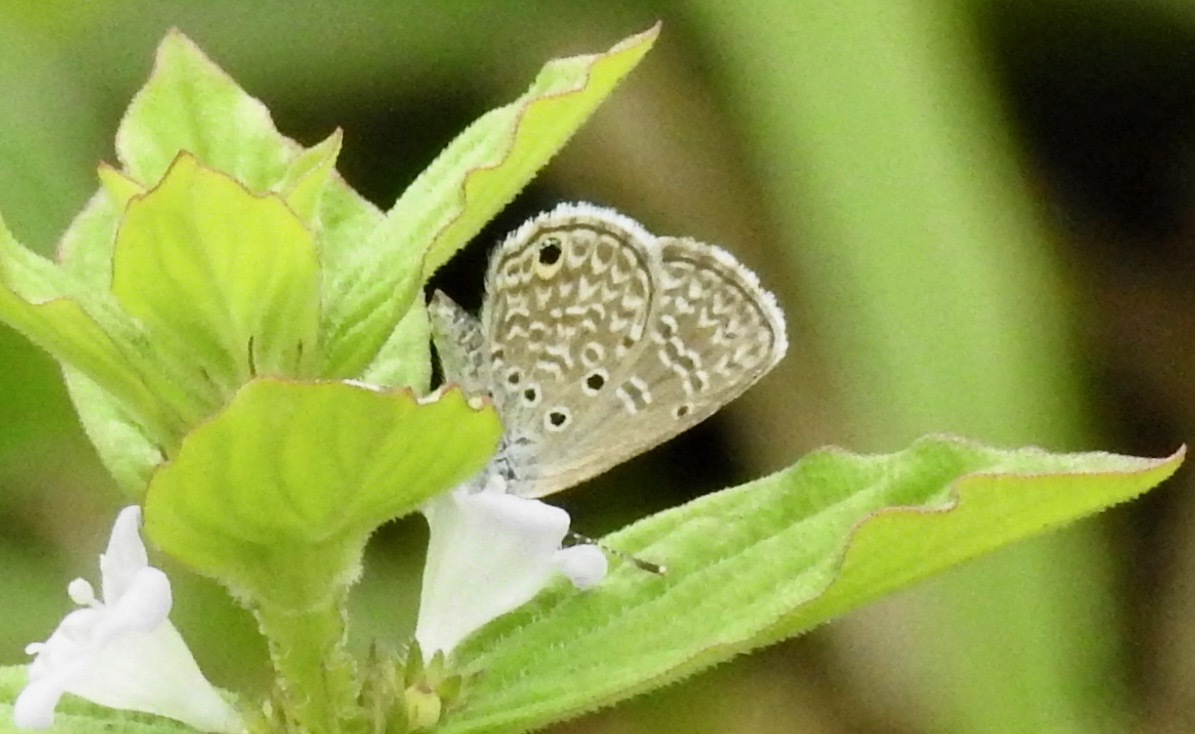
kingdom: Animalia
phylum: Arthropoda
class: Insecta
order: Lepidoptera
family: Lycaenidae
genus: Hemiargus
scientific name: Hemiargus hanno
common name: Common blue
